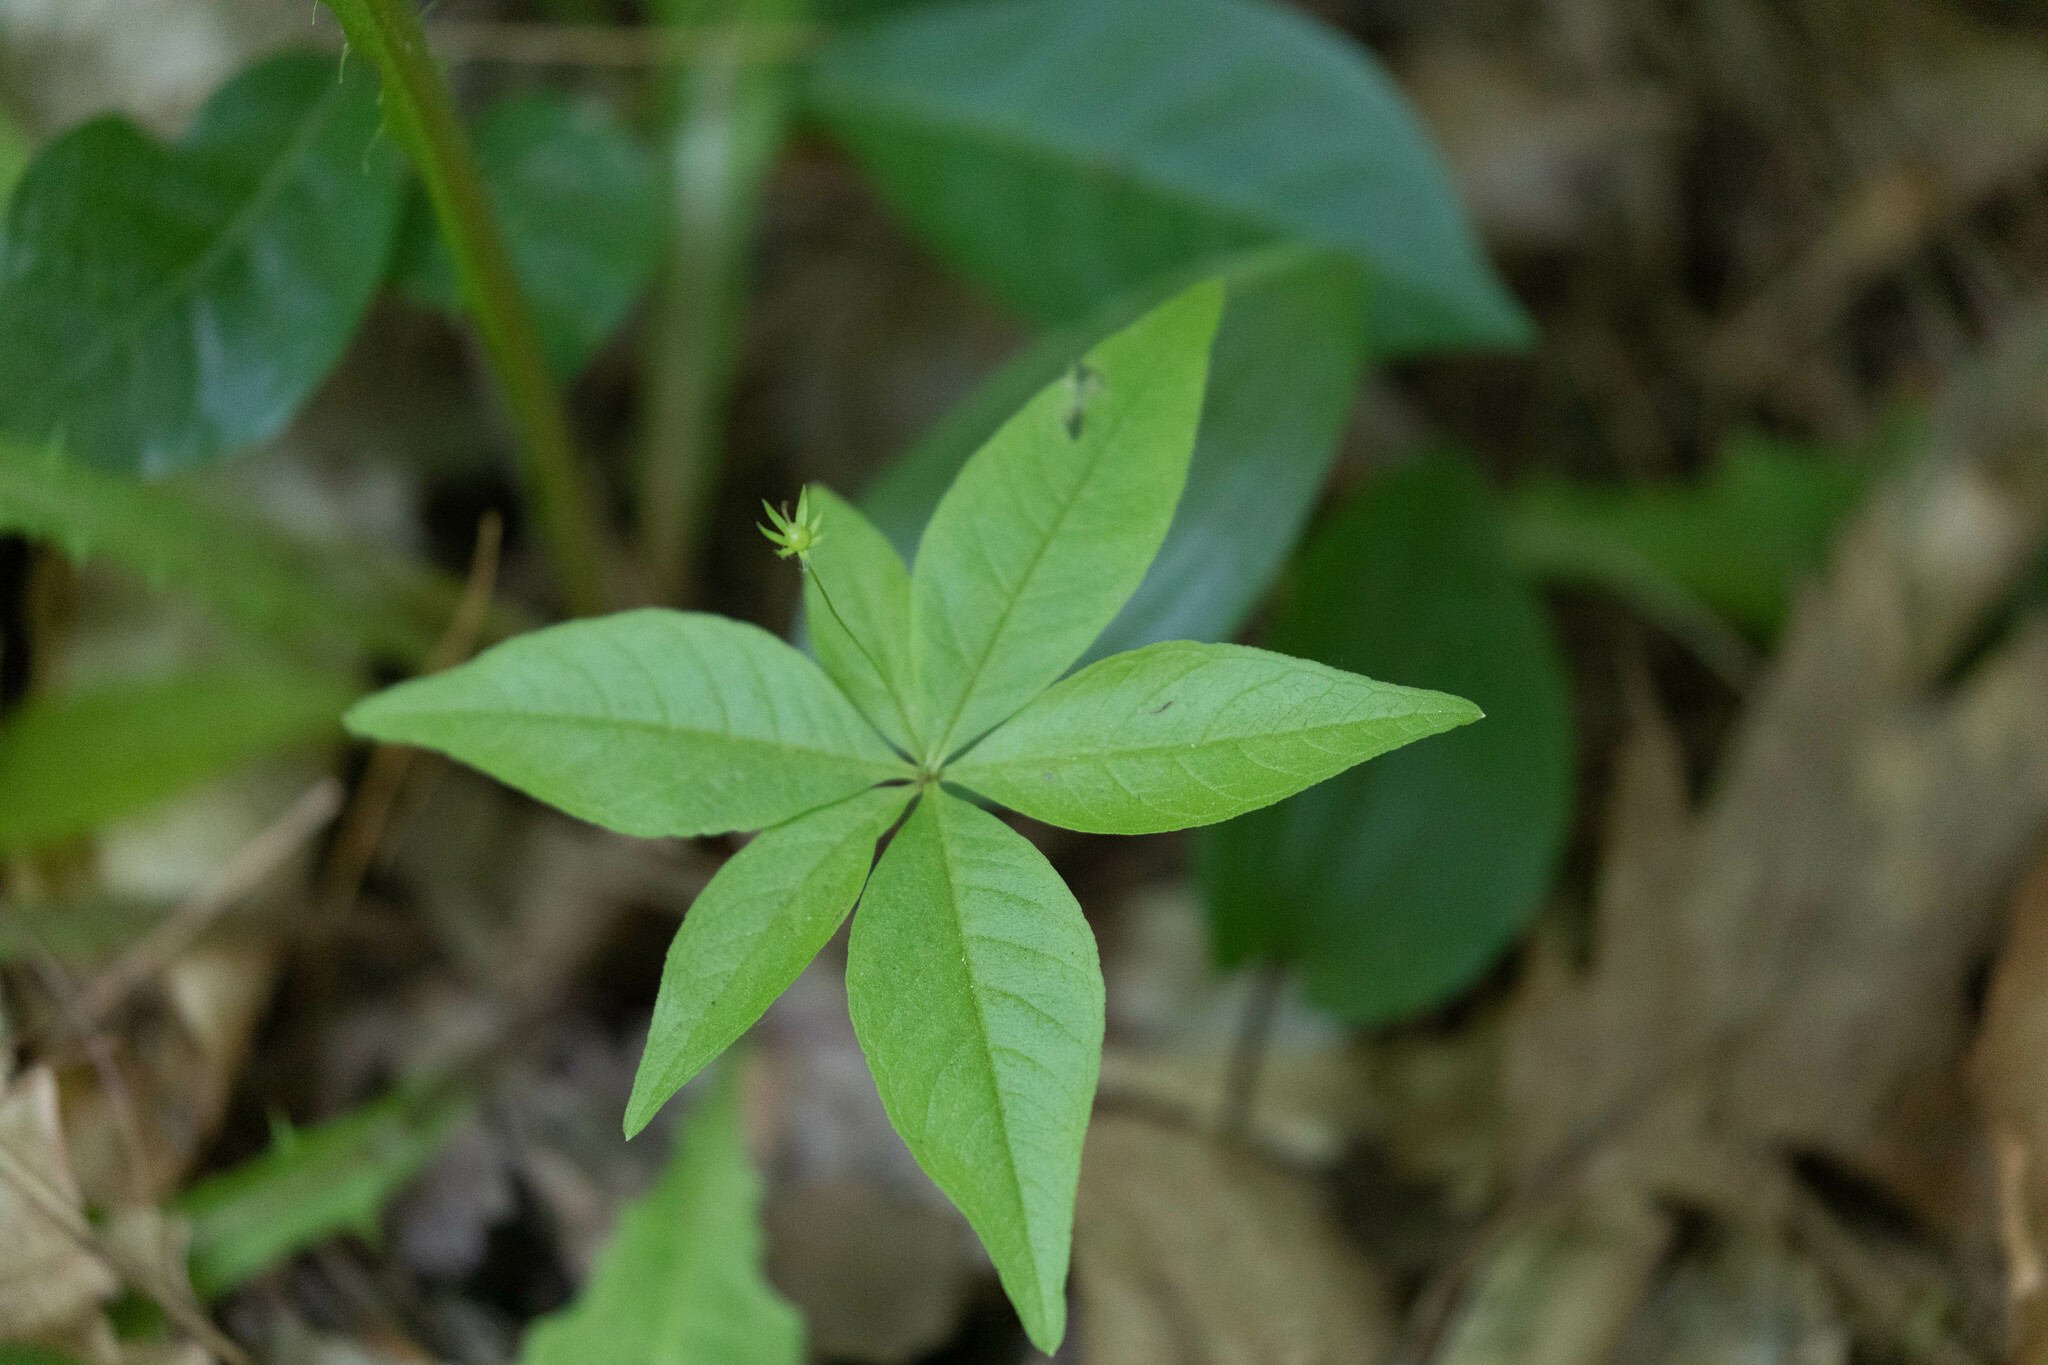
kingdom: Plantae
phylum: Tracheophyta
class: Magnoliopsida
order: Ericales
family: Primulaceae
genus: Lysimachia
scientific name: Lysimachia borealis
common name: American starflower
